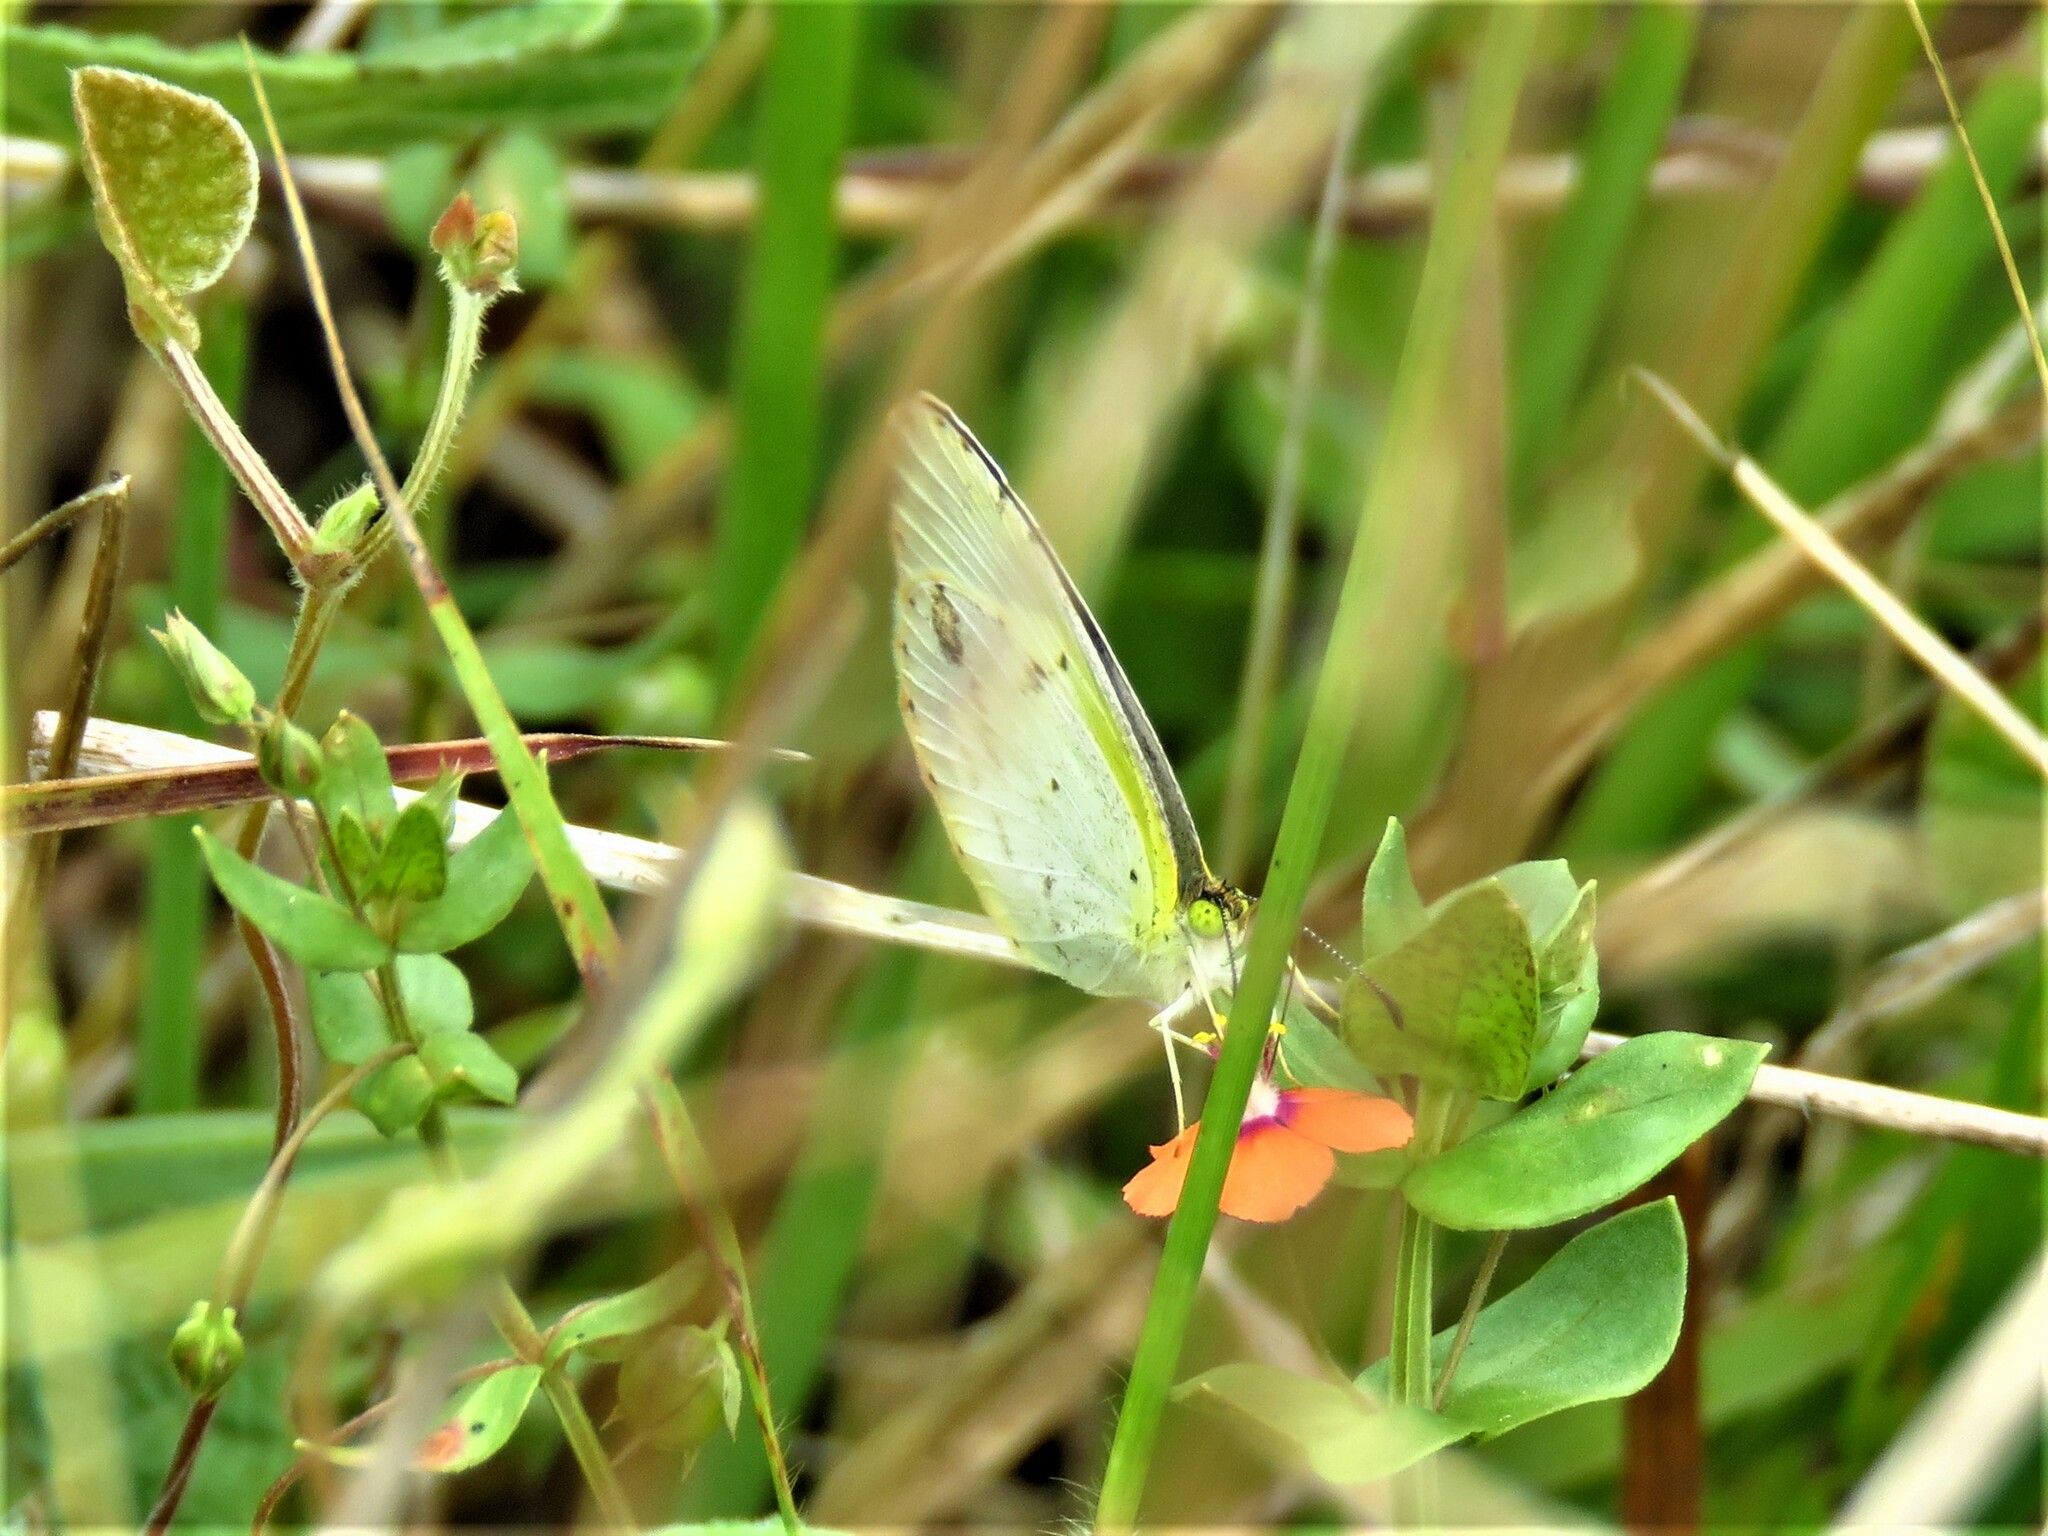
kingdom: Animalia
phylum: Arthropoda
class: Insecta
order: Lepidoptera
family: Pieridae
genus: Pyrisitia
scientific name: Pyrisitia lisa
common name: Little yellow
